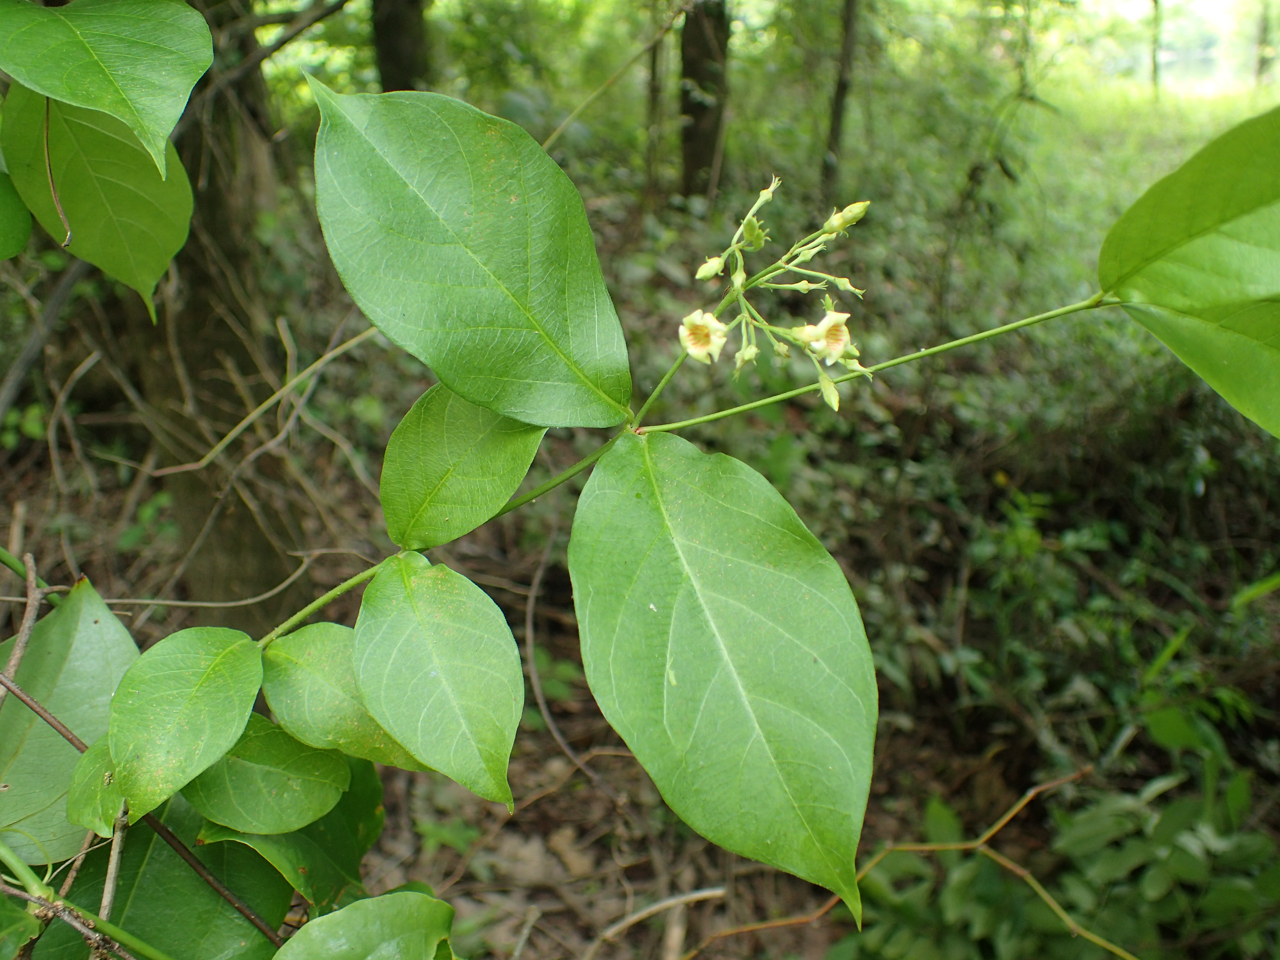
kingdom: Plantae
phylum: Tracheophyta
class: Magnoliopsida
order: Gentianales
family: Apocynaceae
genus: Thyrsanthella
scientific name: Thyrsanthella difformis
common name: Climbing dogbane
